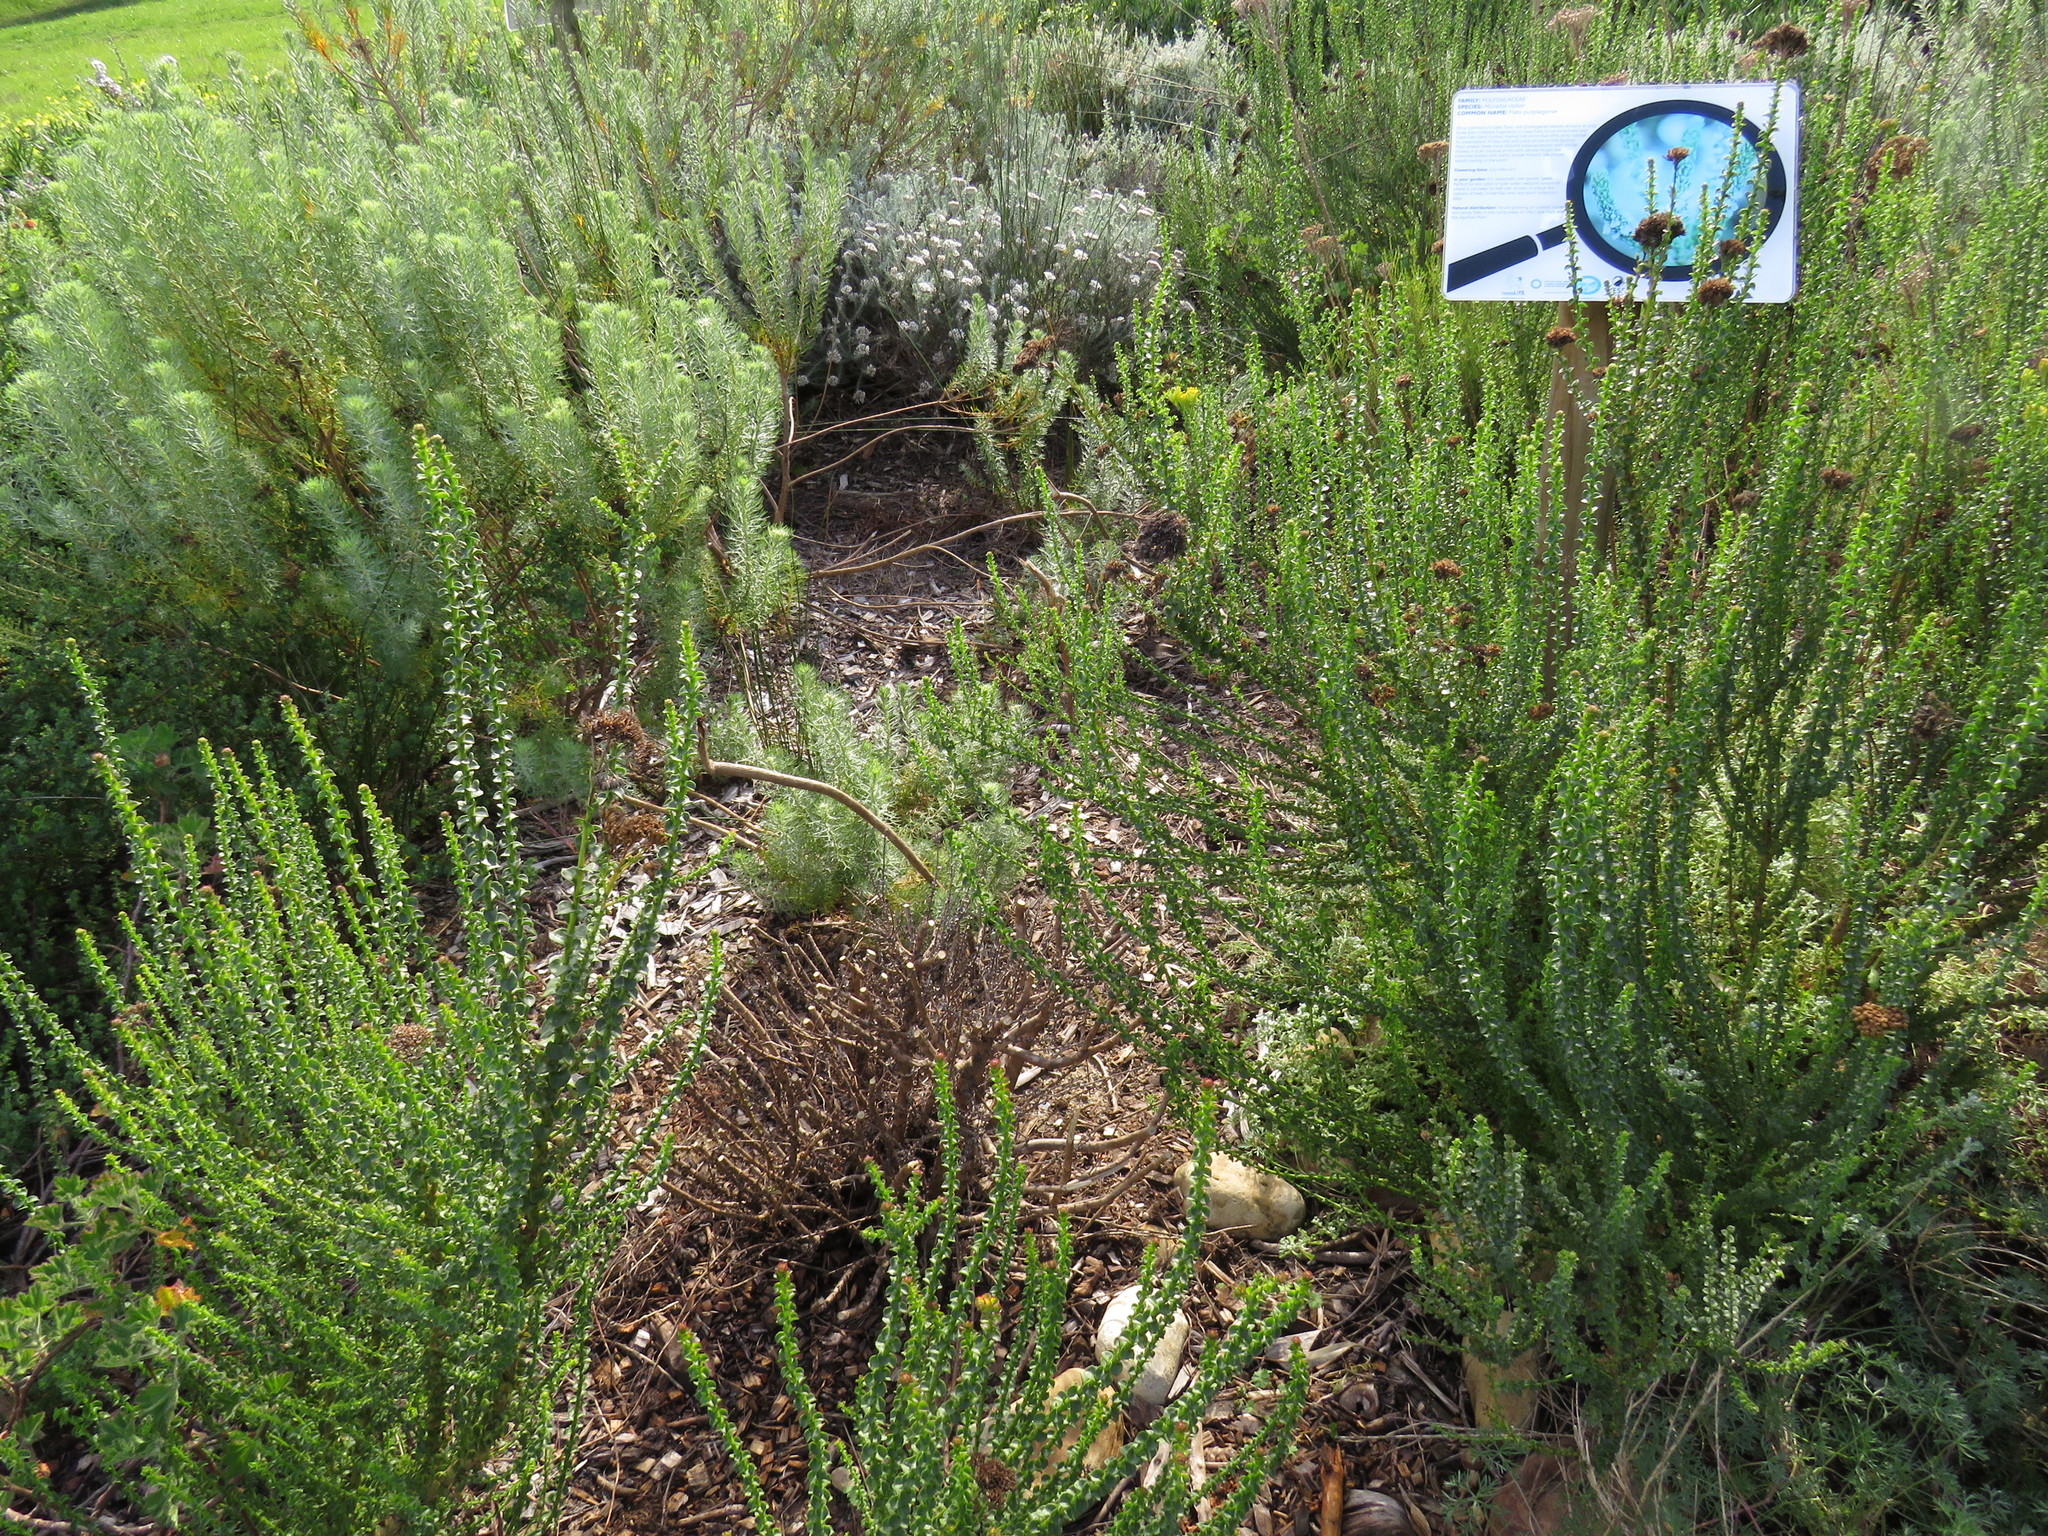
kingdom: Plantae
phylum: Tracheophyta
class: Magnoliopsida
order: Fabales
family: Fabaceae
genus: Psoralea
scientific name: Psoralea fascicularis
